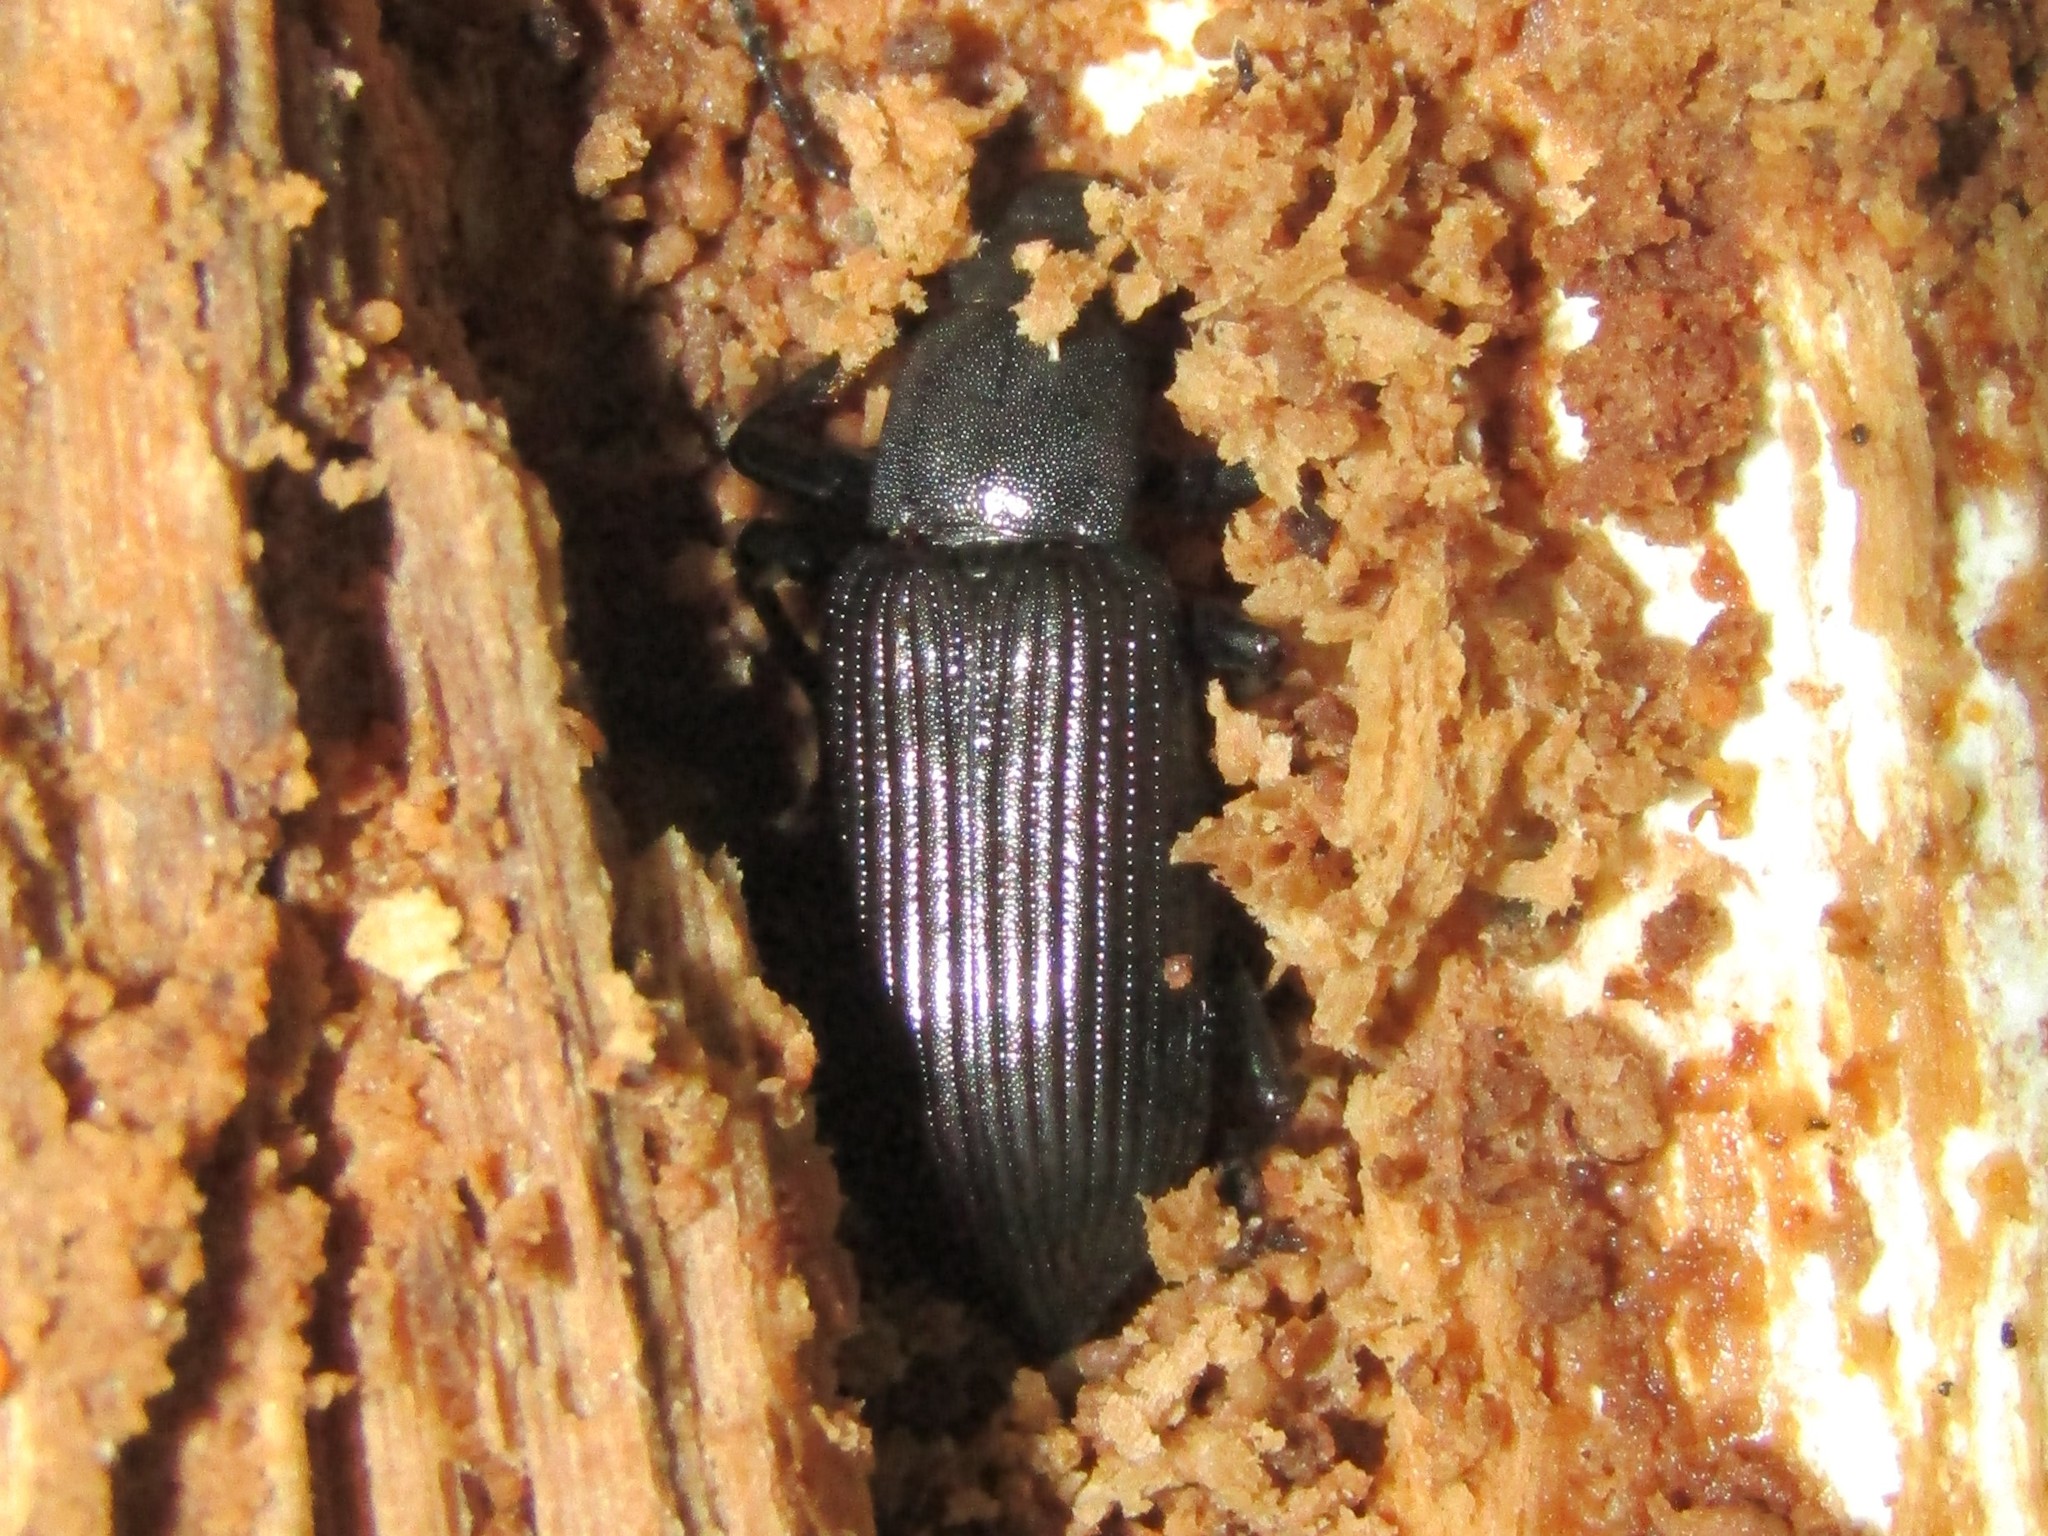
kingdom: Animalia
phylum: Arthropoda
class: Insecta
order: Coleoptera
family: Tenebrionidae
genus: Xylopinus
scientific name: Xylopinus saperdoides
